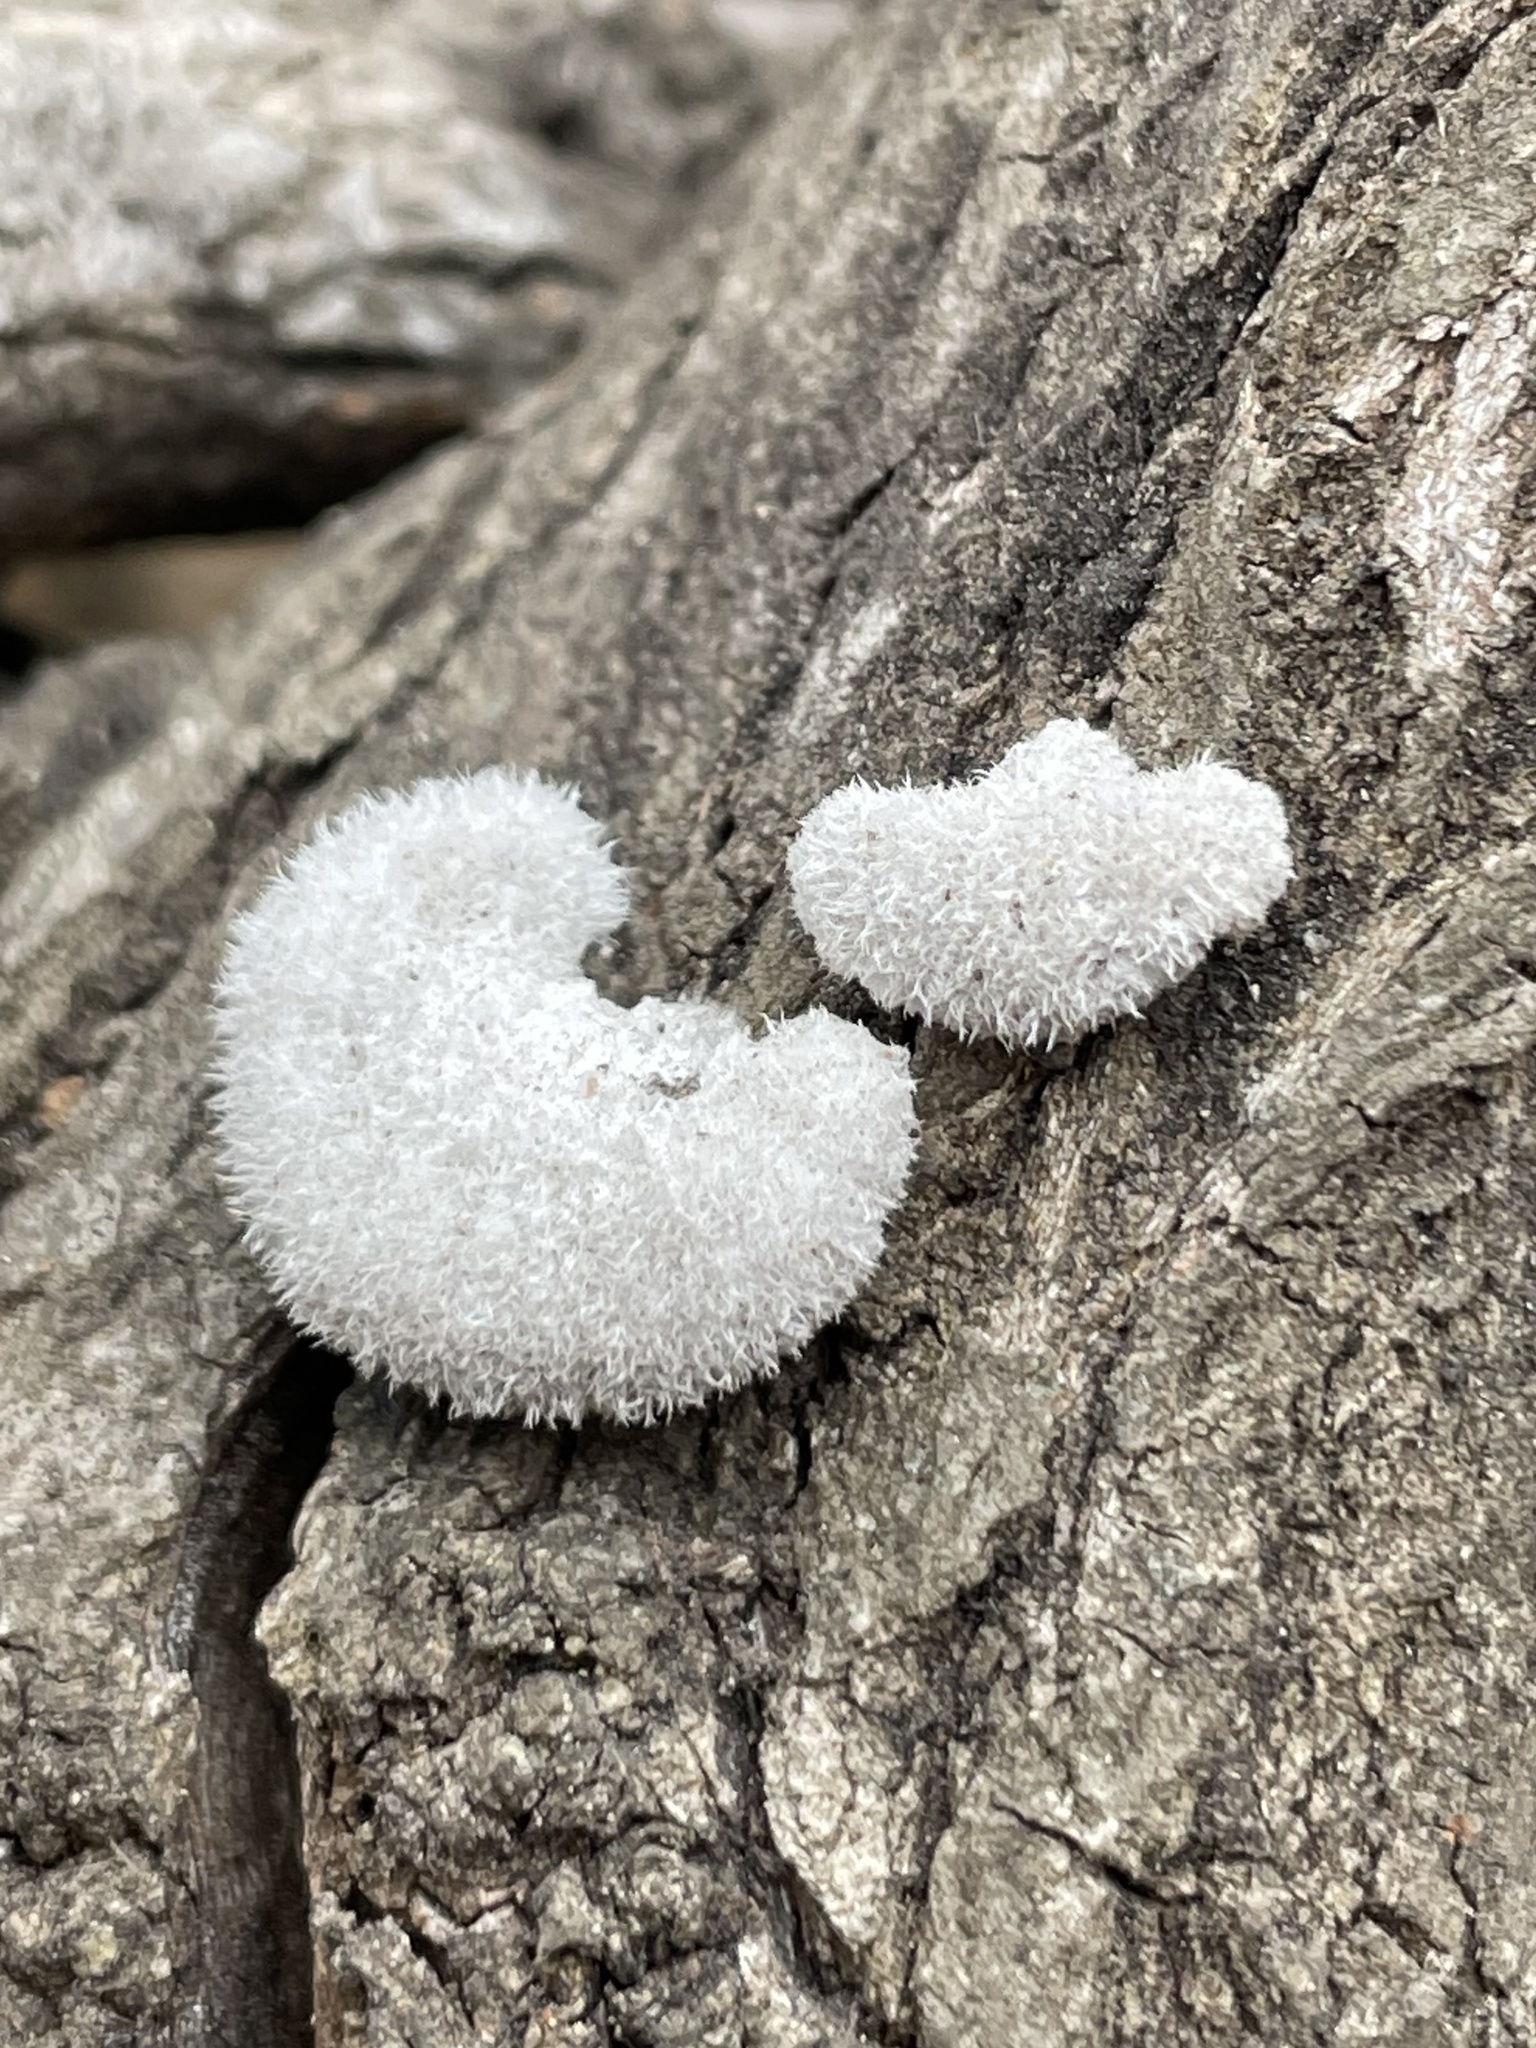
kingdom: Fungi
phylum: Basidiomycota
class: Agaricomycetes
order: Agaricales
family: Schizophyllaceae
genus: Schizophyllum
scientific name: Schizophyllum commune
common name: Common porecrust
